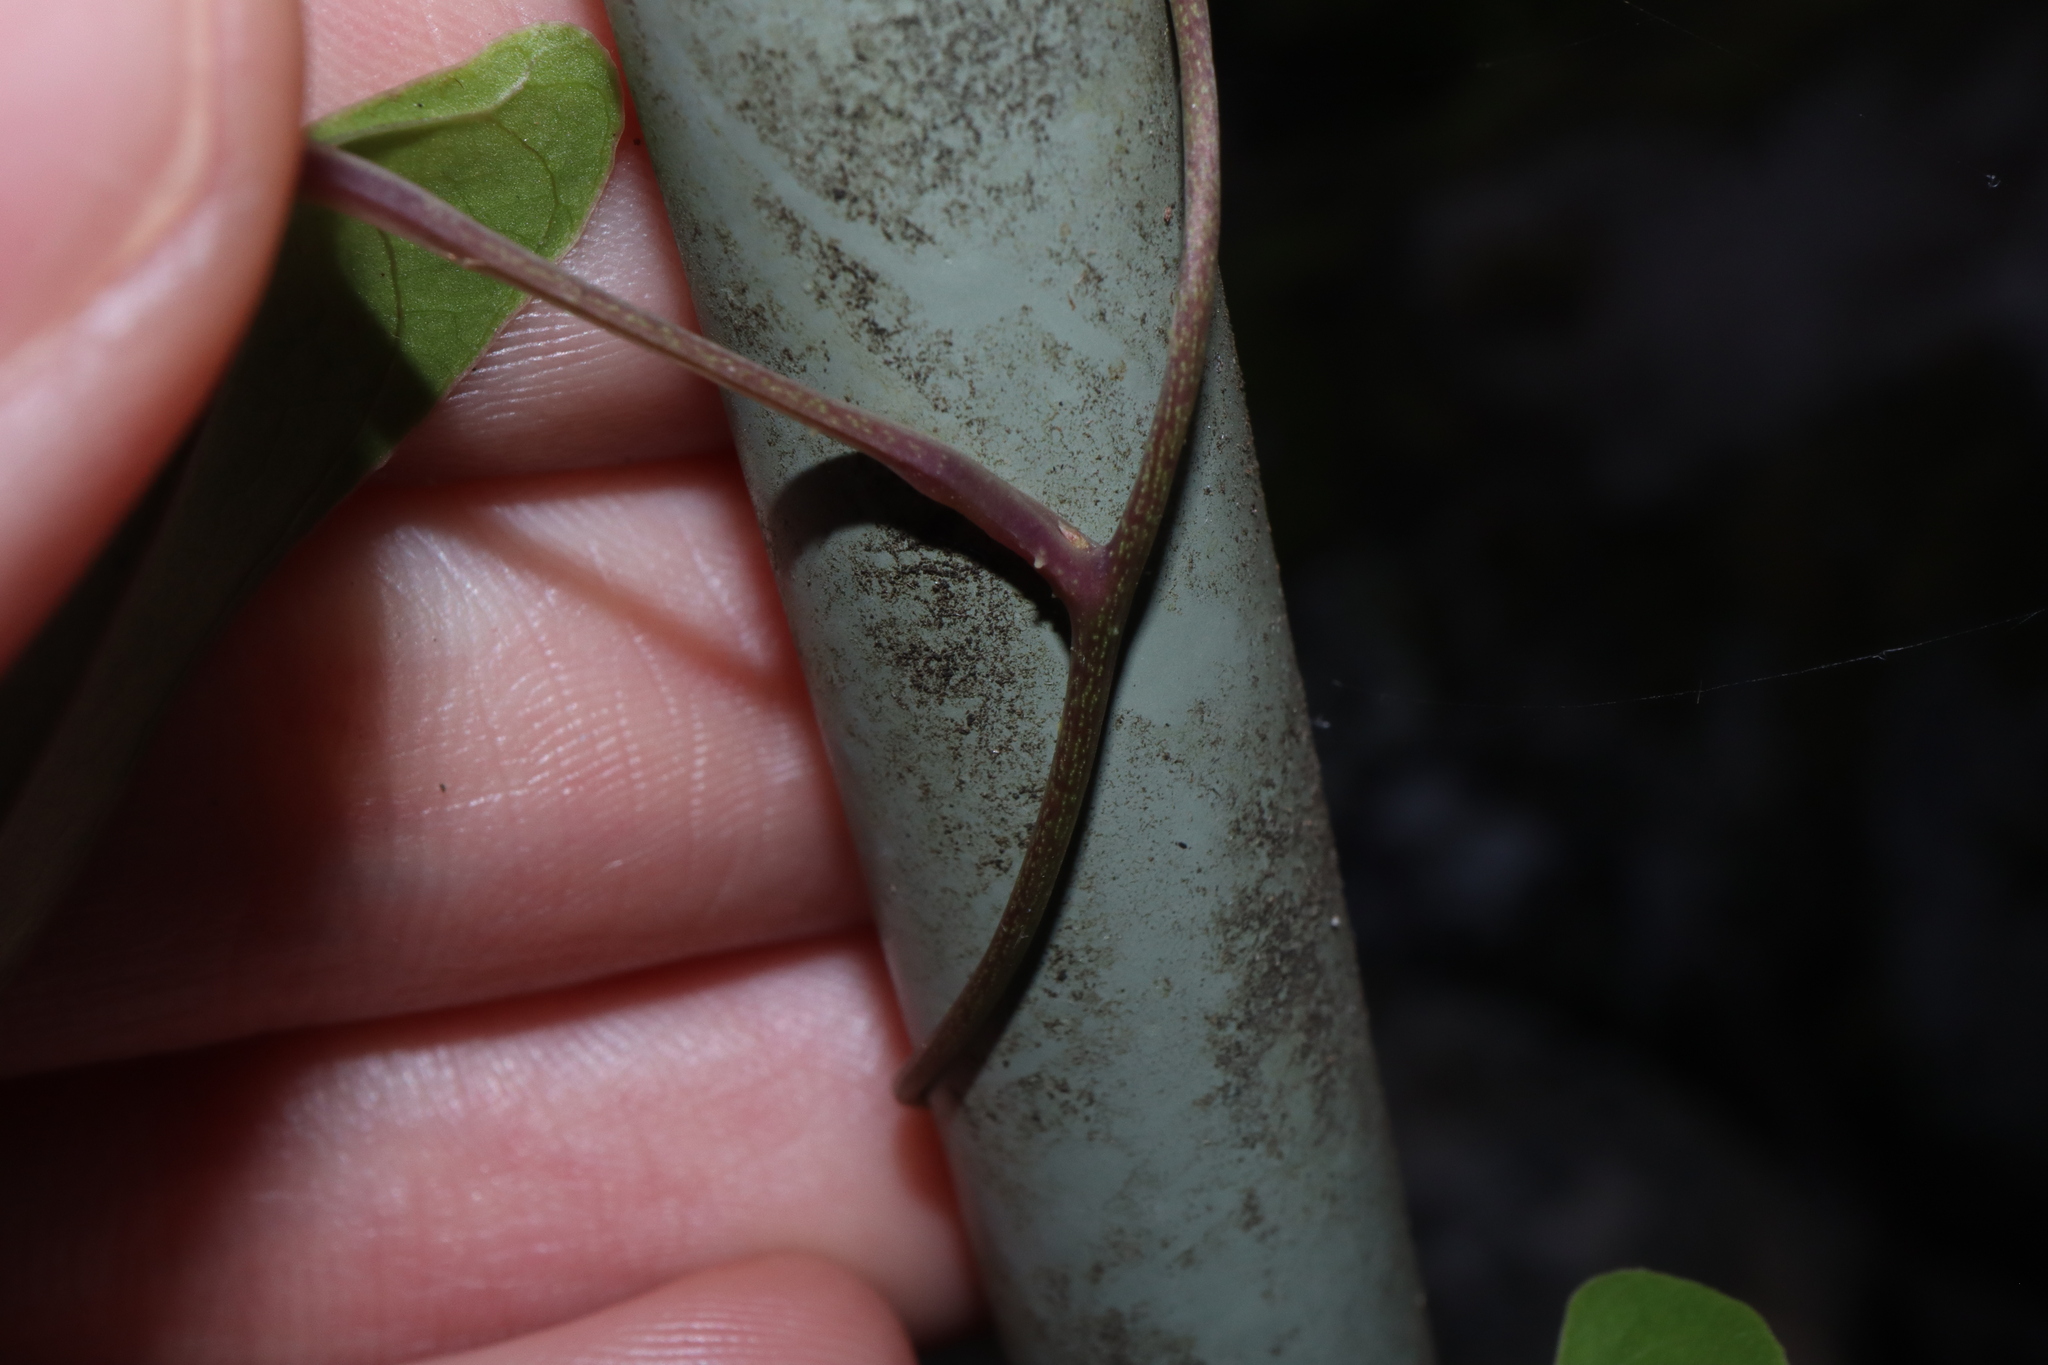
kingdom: Plantae
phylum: Tracheophyta
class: Liliopsida
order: Dioscoreales
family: Dioscoreaceae
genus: Dioscorea
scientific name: Dioscorea transversa
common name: Long yam
